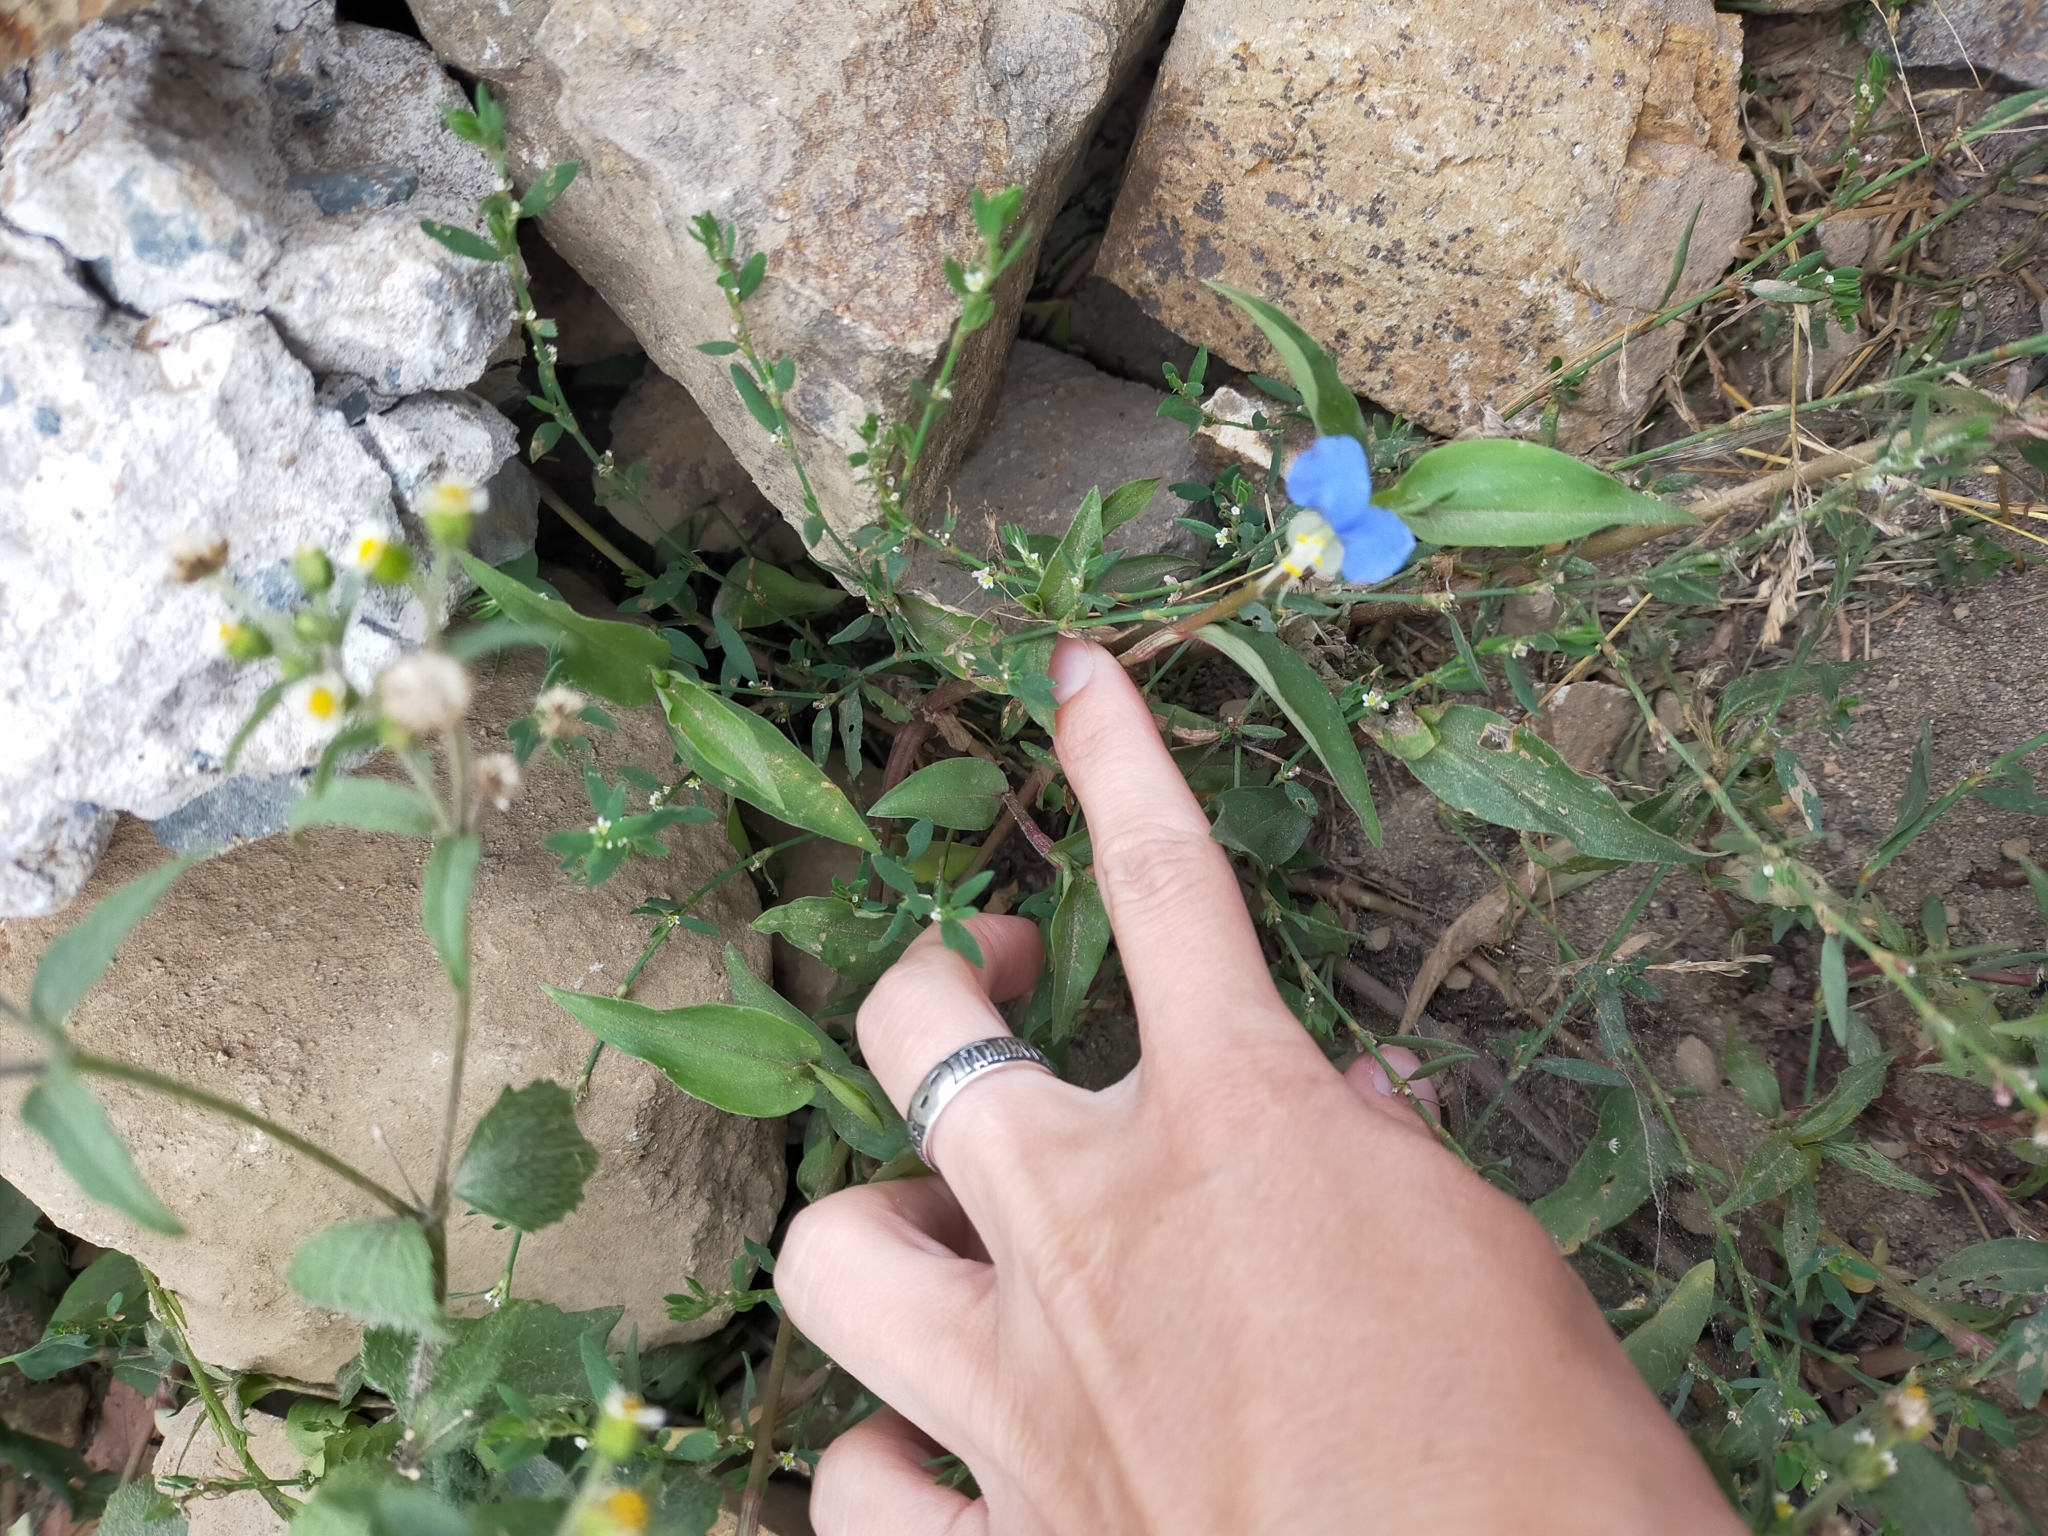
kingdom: Plantae
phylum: Tracheophyta
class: Liliopsida
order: Commelinales
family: Commelinaceae
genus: Commelina
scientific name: Commelina communis
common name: Asiatic dayflower
